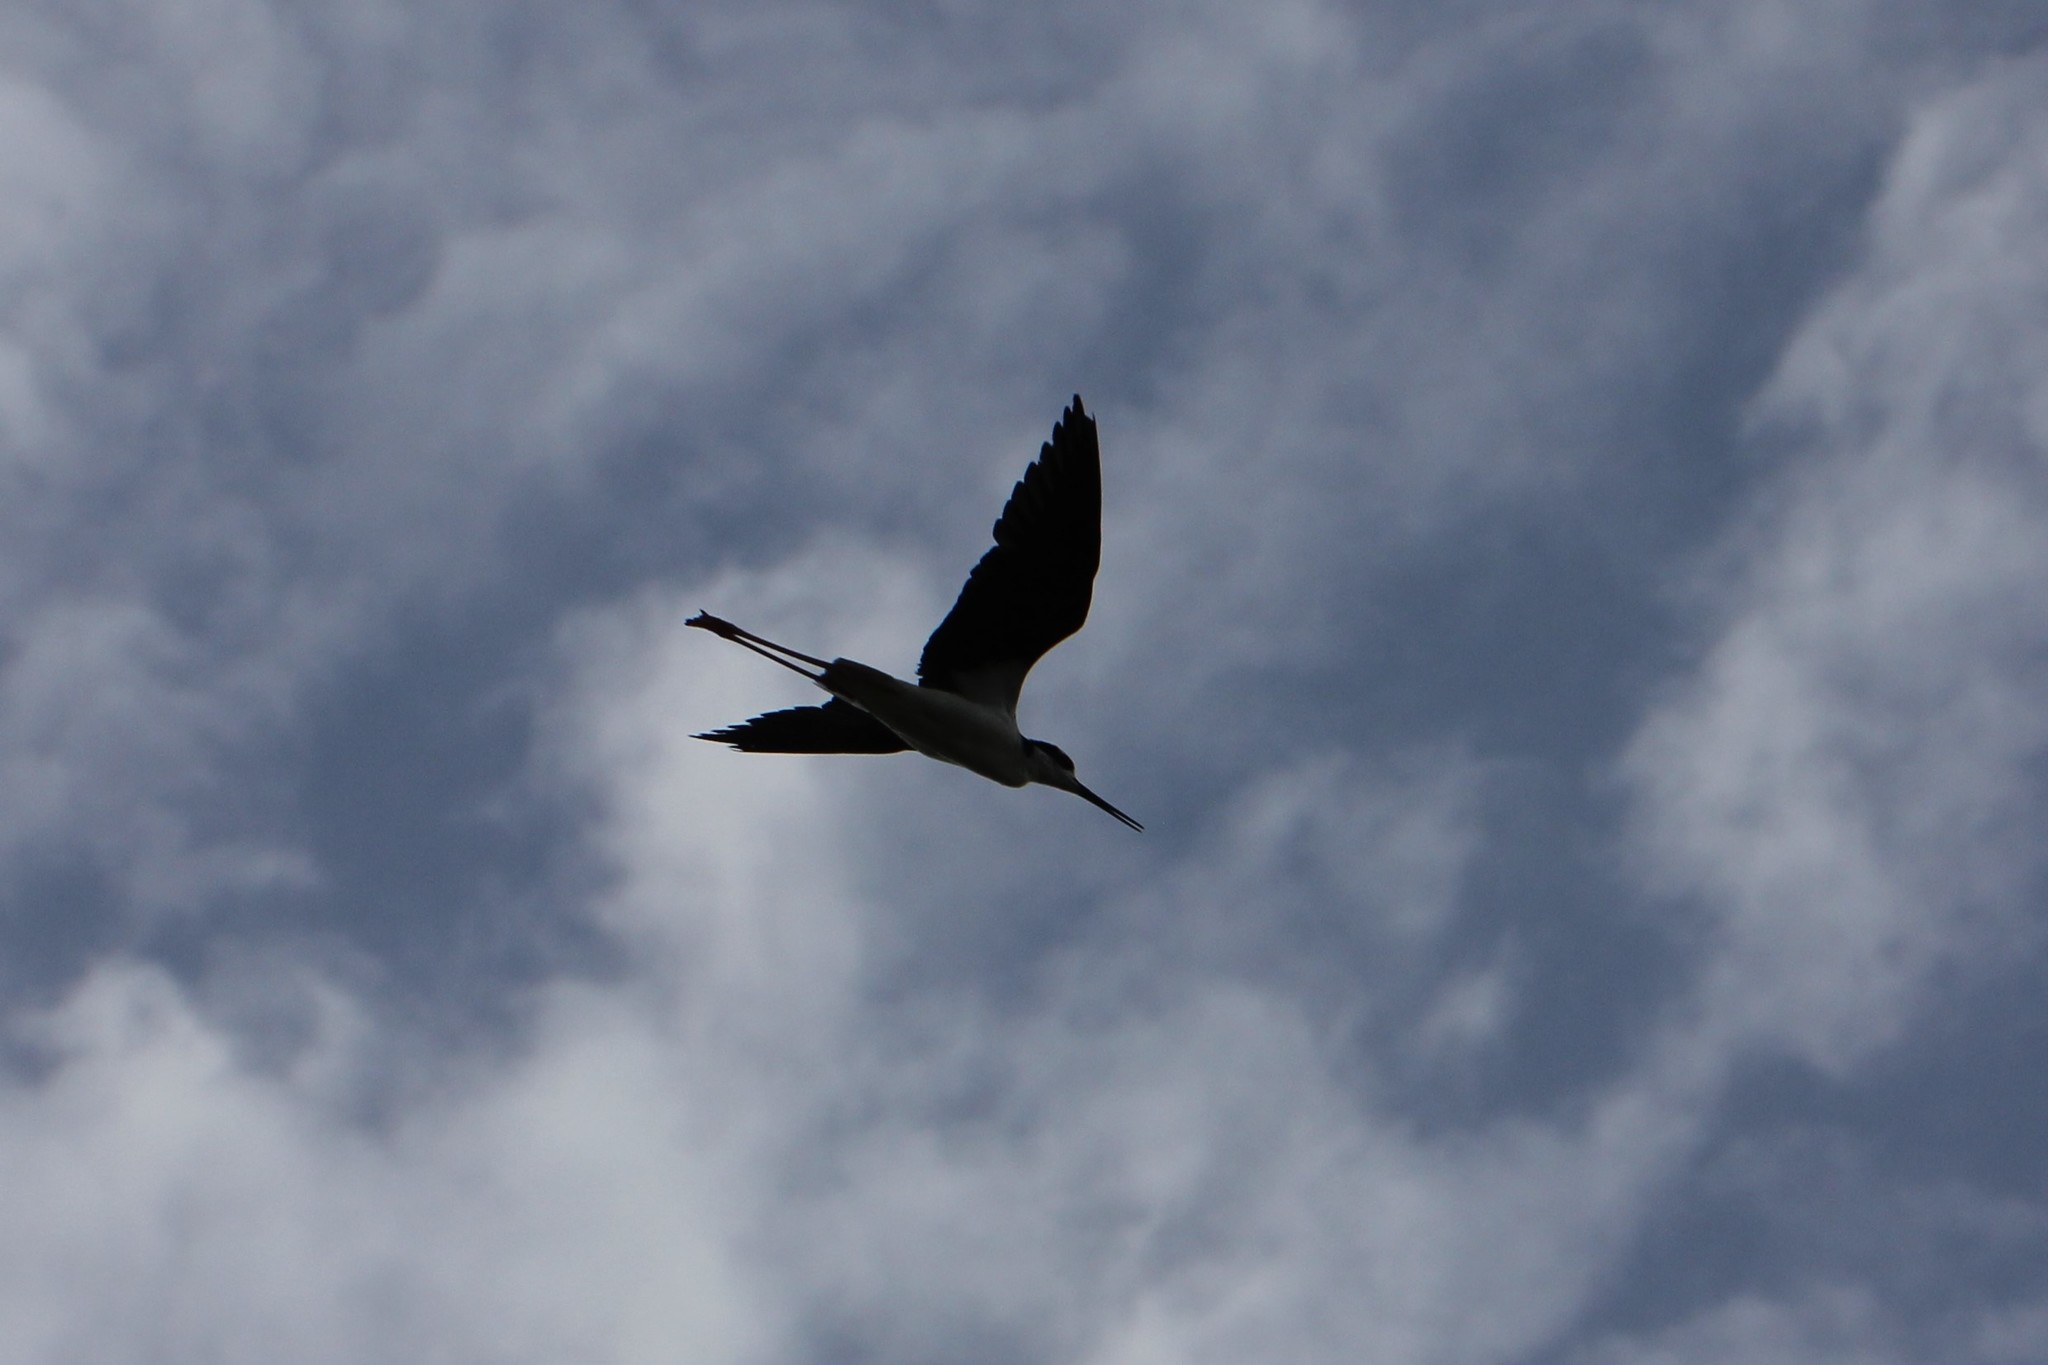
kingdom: Animalia
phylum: Chordata
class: Aves
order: Charadriiformes
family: Recurvirostridae
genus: Himantopus
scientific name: Himantopus mexicanus
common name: Black-necked stilt
